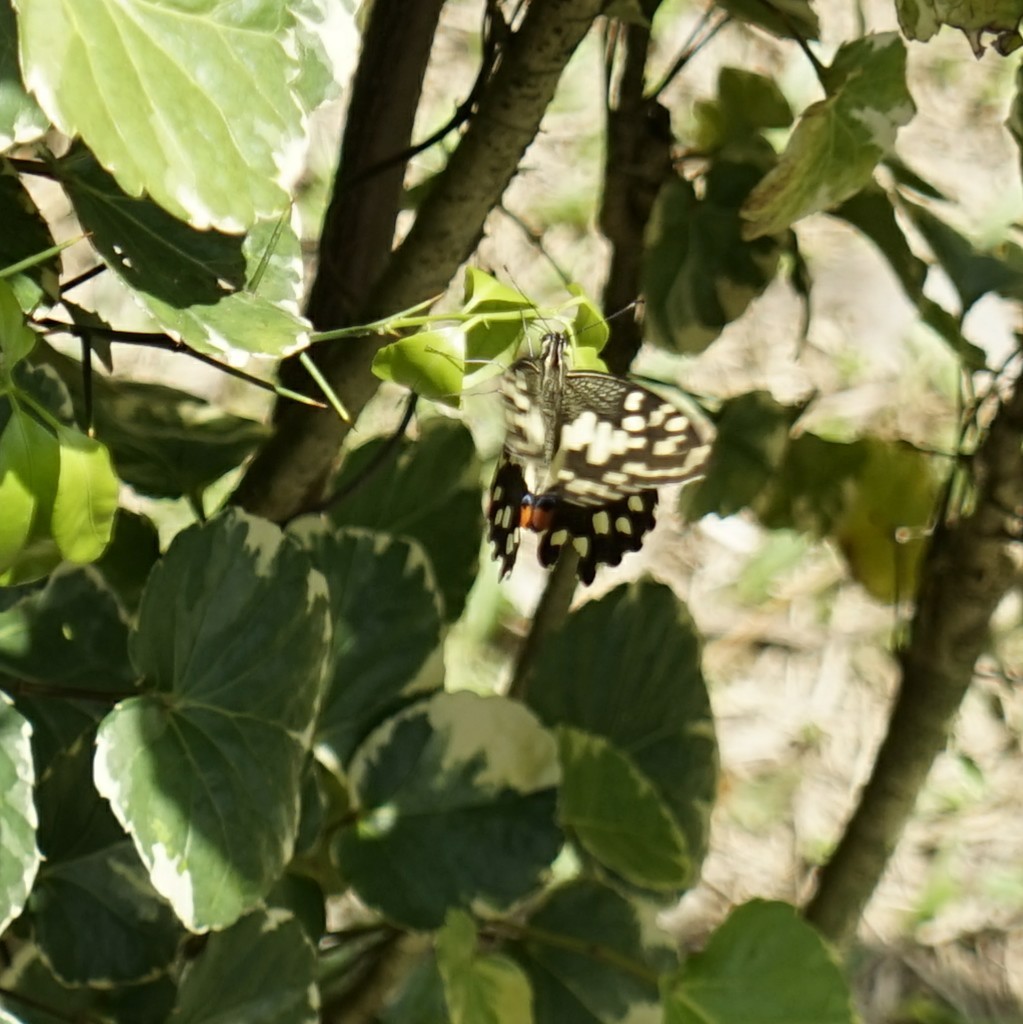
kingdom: Animalia
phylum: Arthropoda
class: Insecta
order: Lepidoptera
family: Papilionidae
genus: Papilio
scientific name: Papilio demoleus
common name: Lime butterfly
